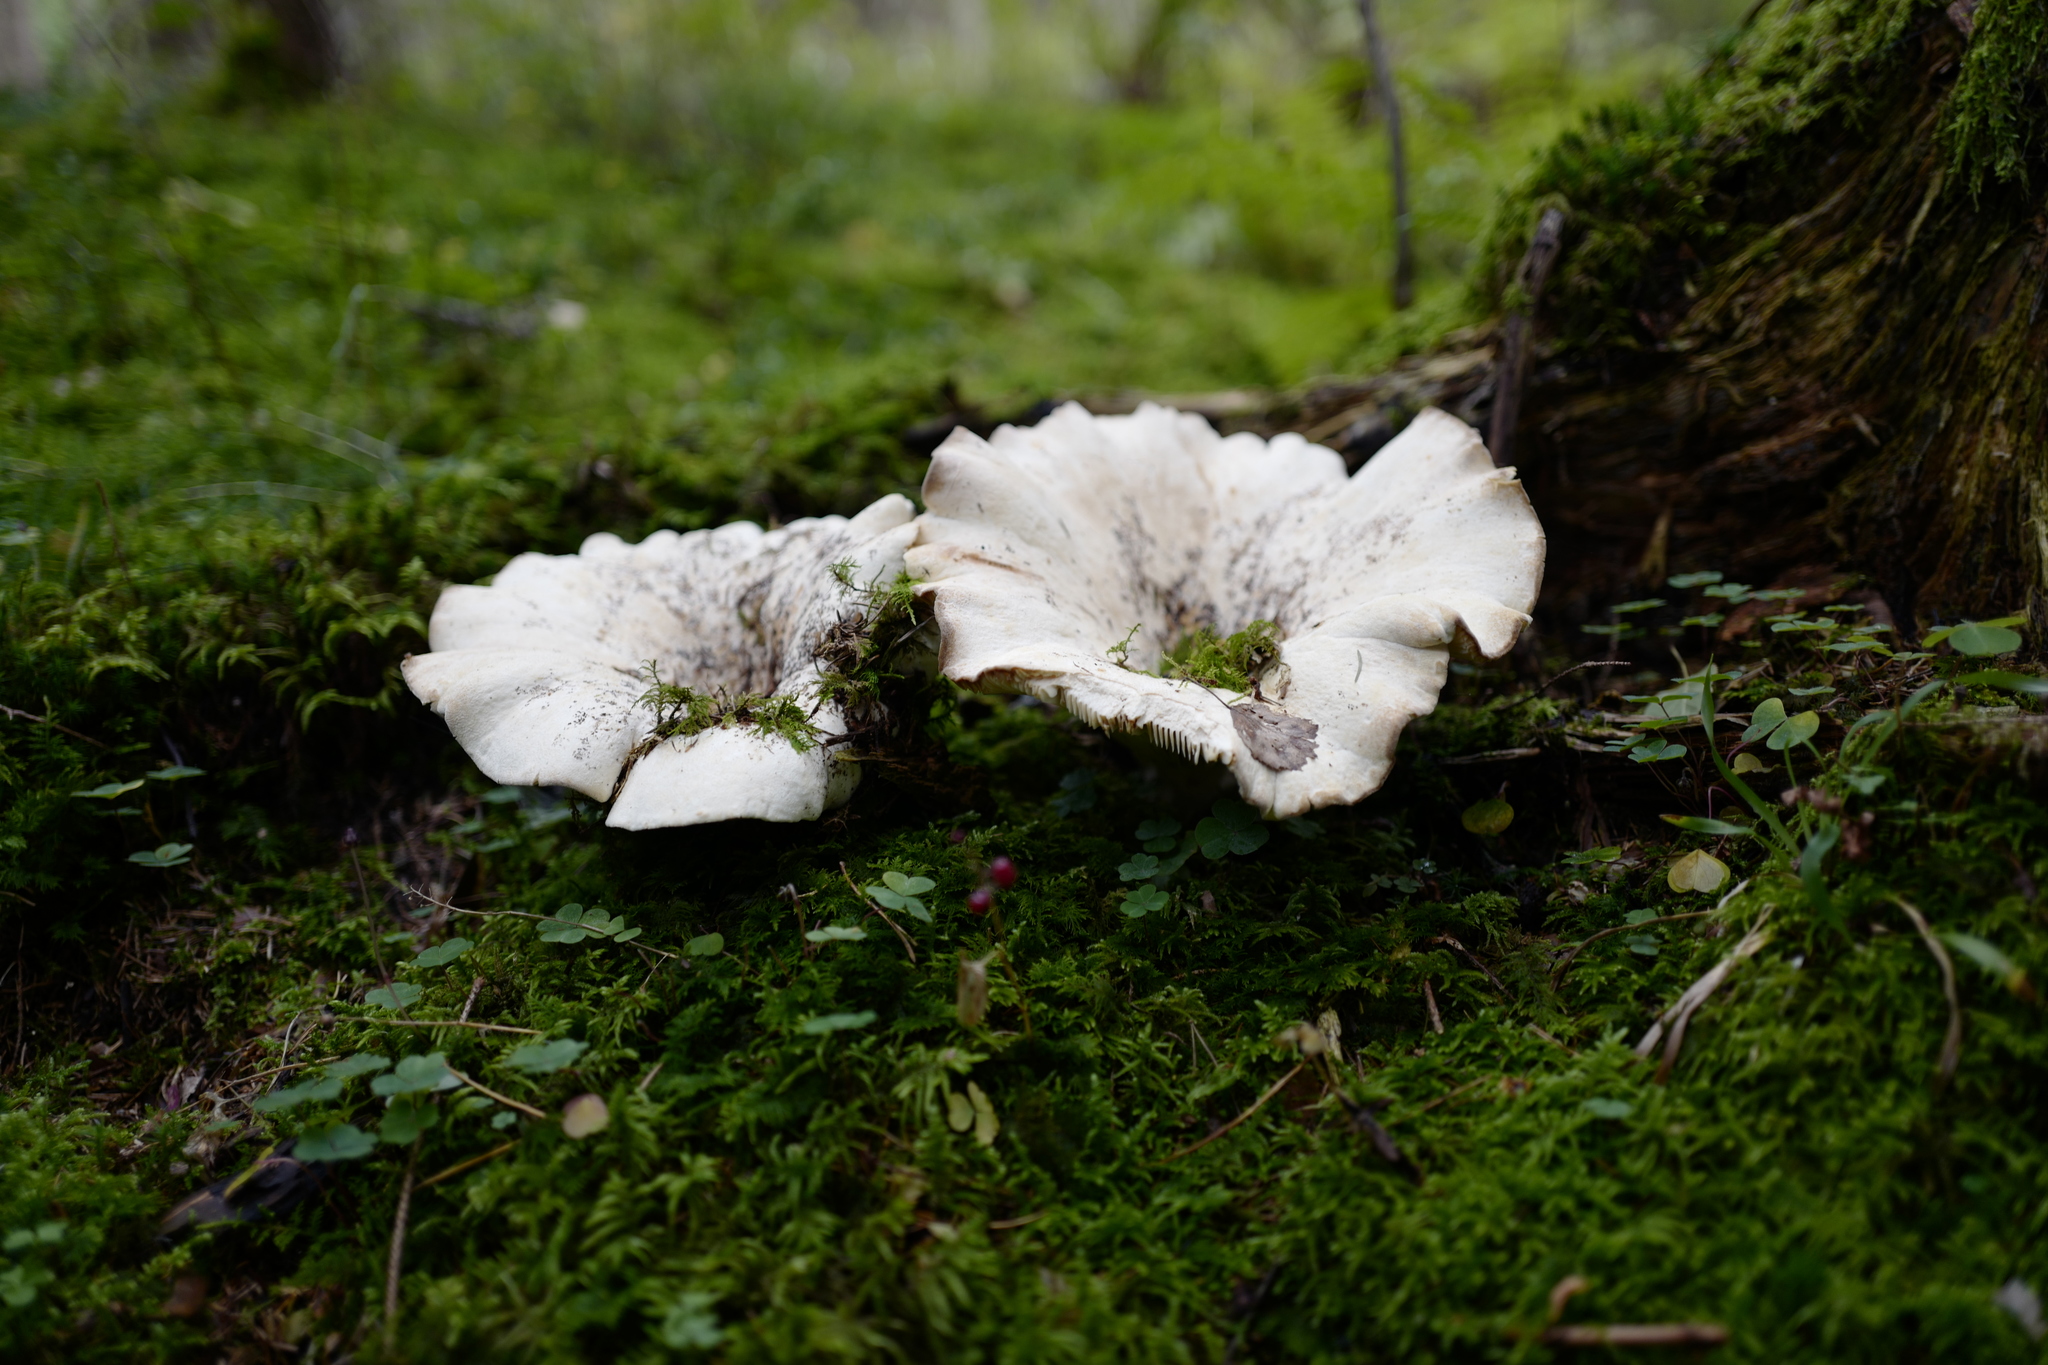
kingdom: Fungi
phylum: Basidiomycota
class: Agaricomycetes
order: Russulales
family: Russulaceae
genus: Lactifluus
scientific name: Lactifluus vellereus
